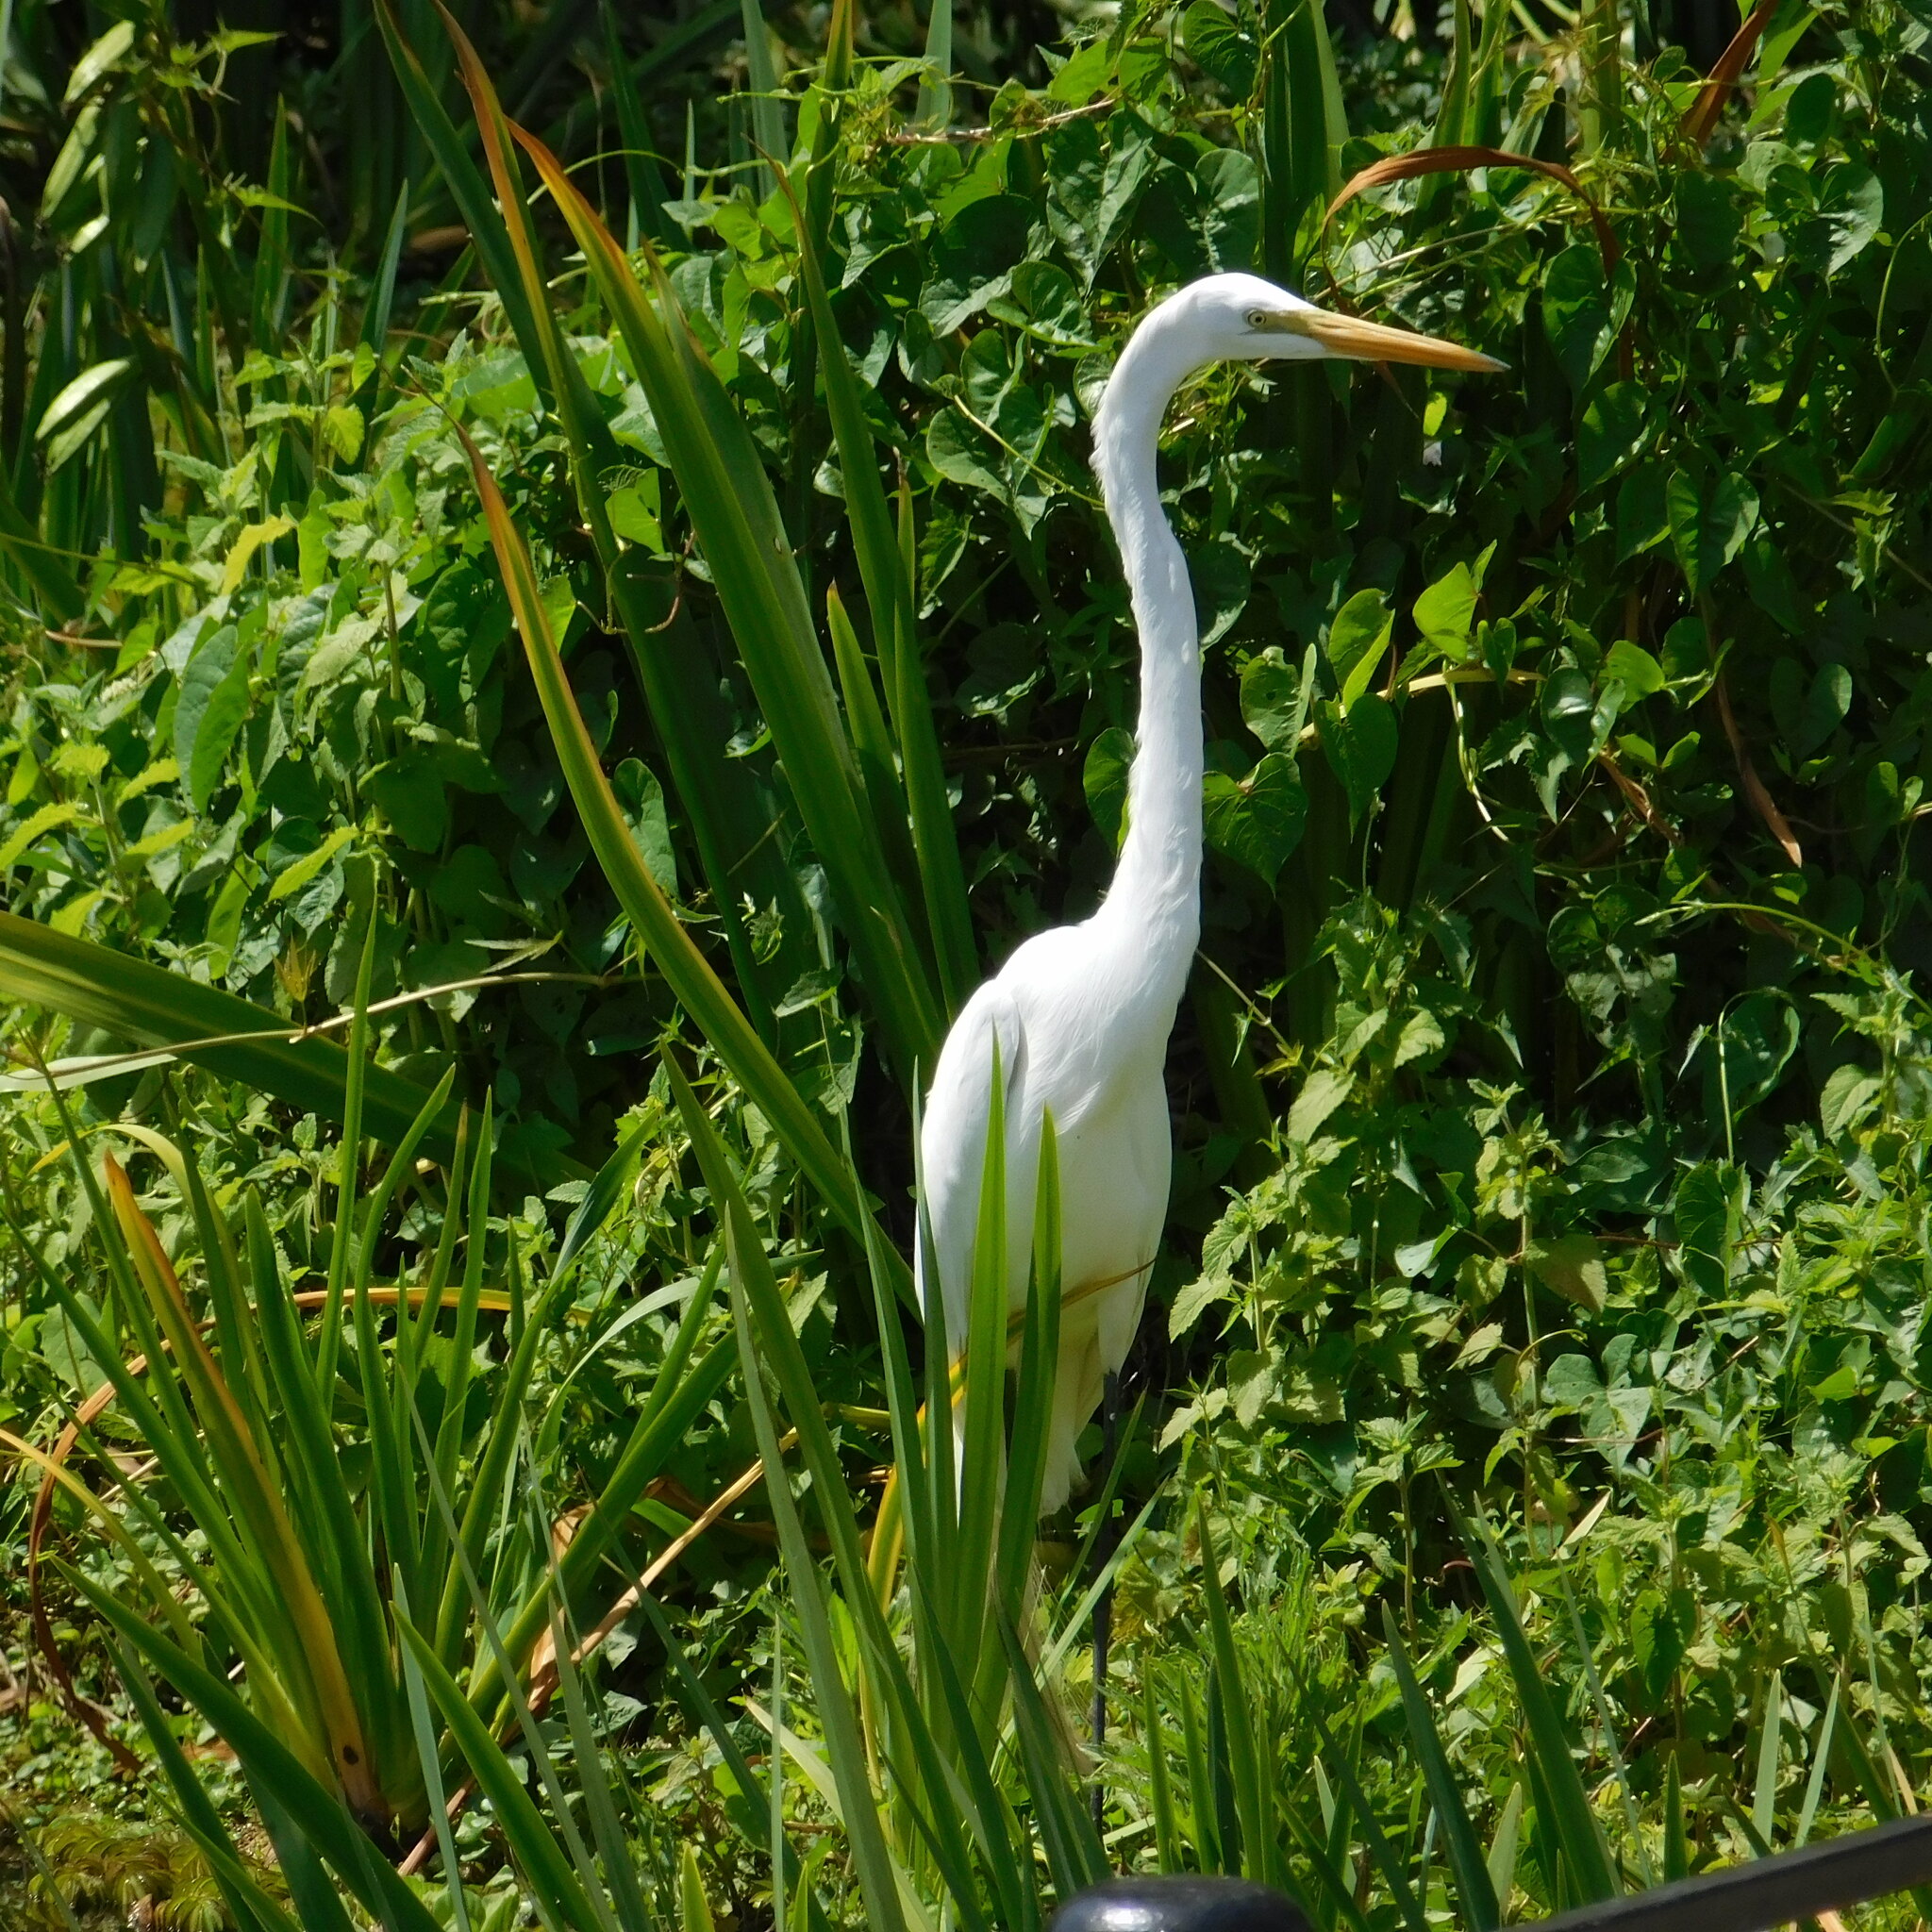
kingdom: Animalia
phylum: Chordata
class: Aves
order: Pelecaniformes
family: Ardeidae
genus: Ardea
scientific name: Ardea alba
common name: Great egret
